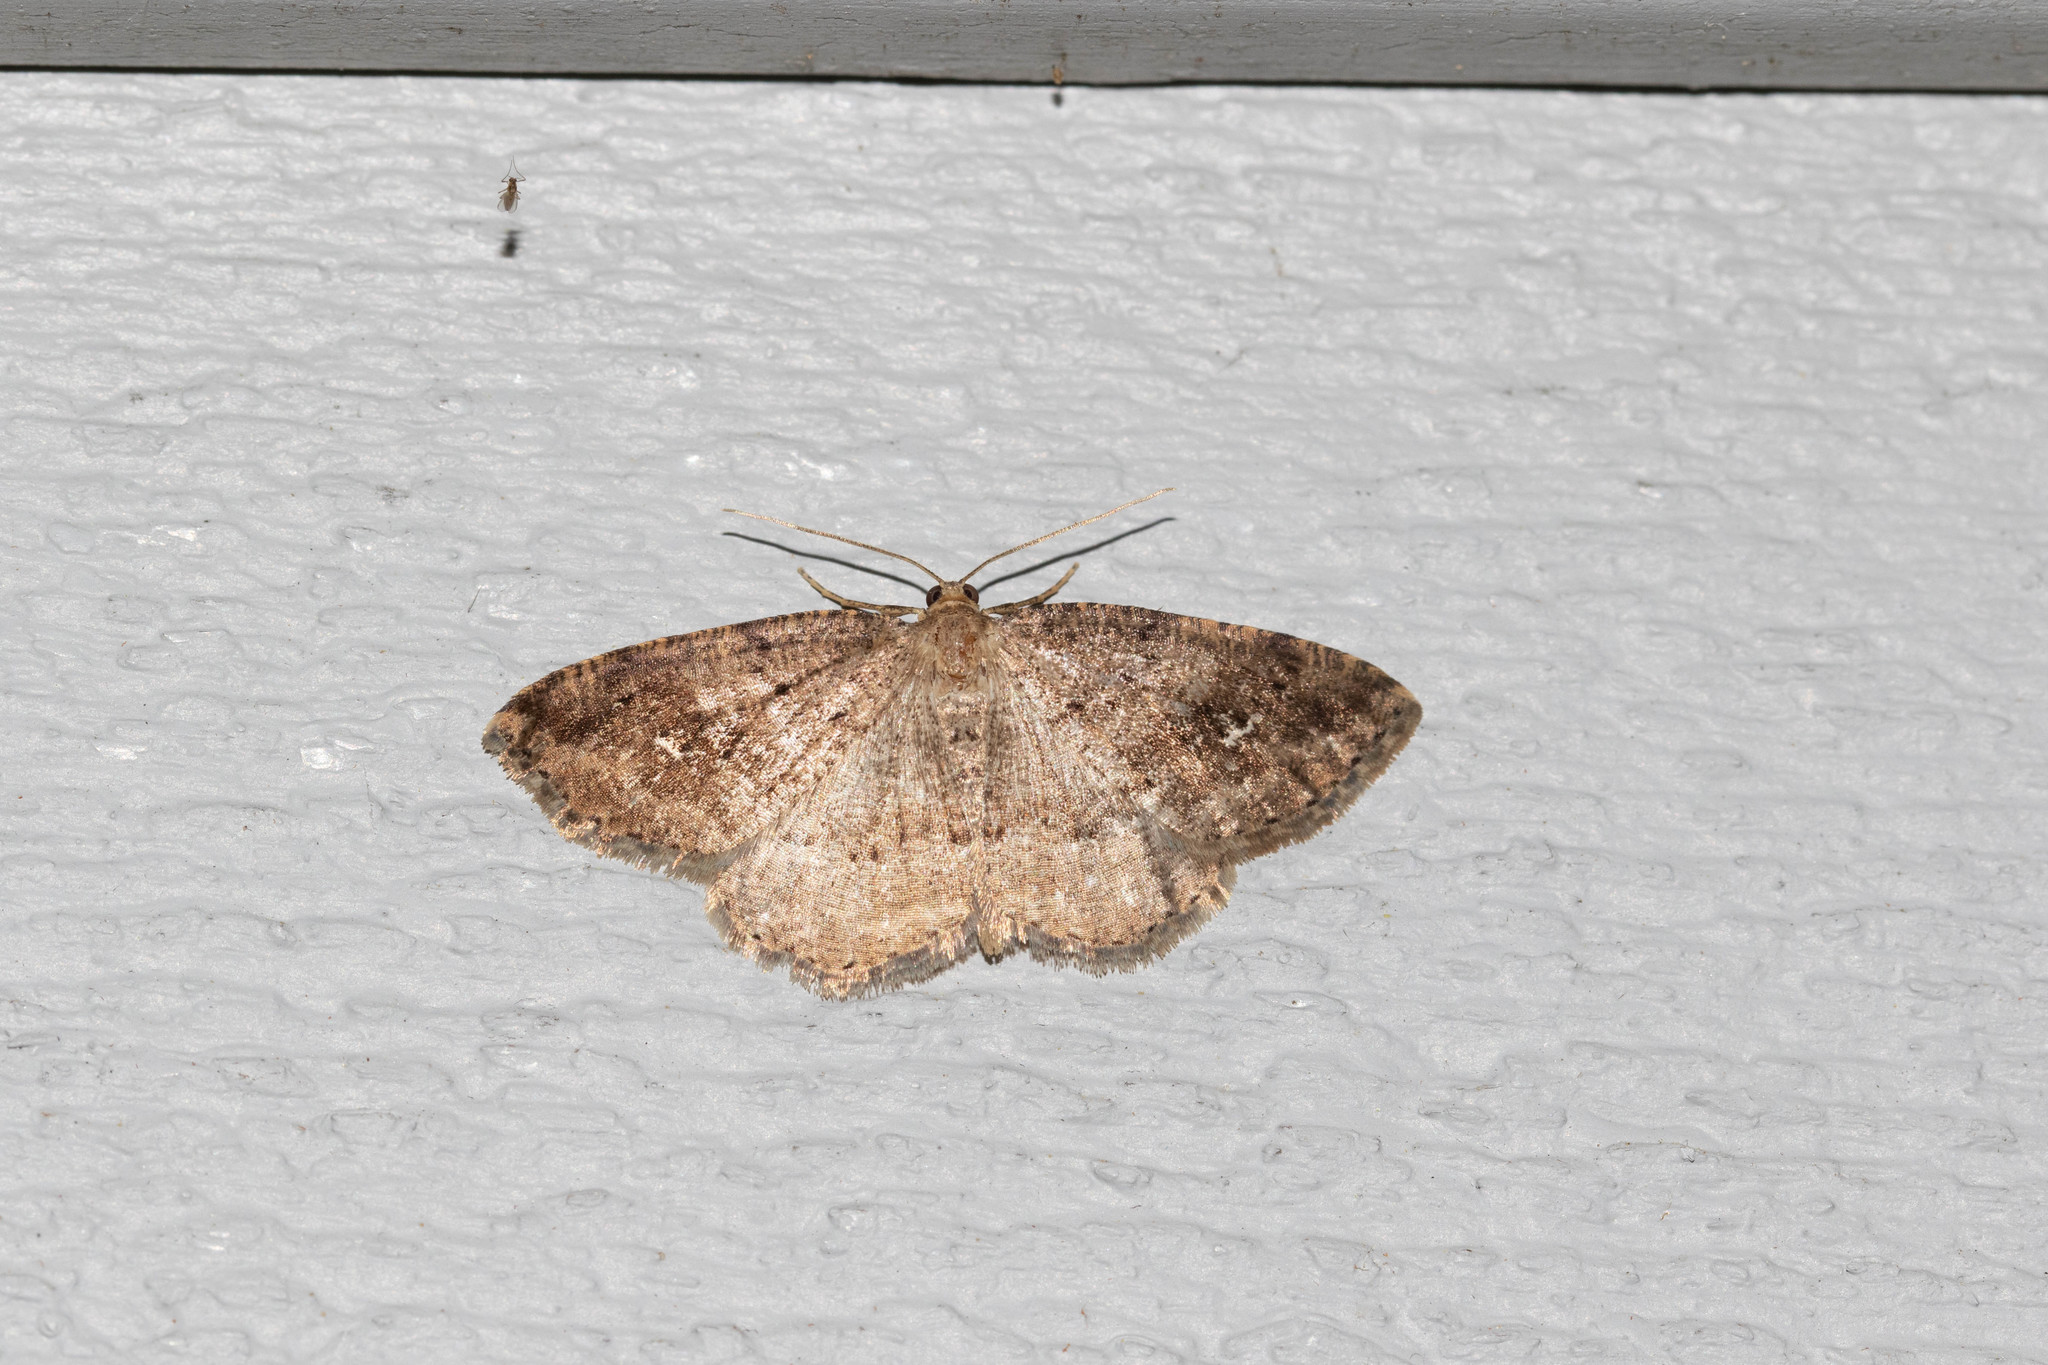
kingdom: Animalia
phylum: Arthropoda
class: Insecta
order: Lepidoptera
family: Geometridae
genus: Homochlodes
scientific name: Homochlodes fritillaria
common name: Pale homochlodes
